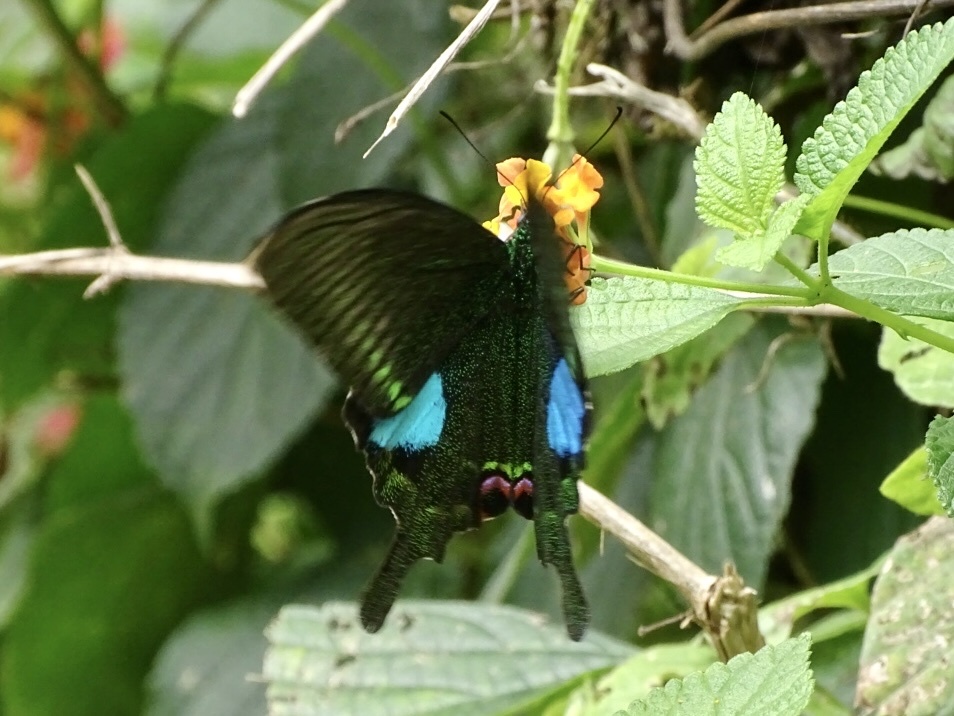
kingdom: Animalia
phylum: Arthropoda
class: Insecta
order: Lepidoptera
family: Papilionidae
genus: Papilio
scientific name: Papilio paris
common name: Paris peacock
